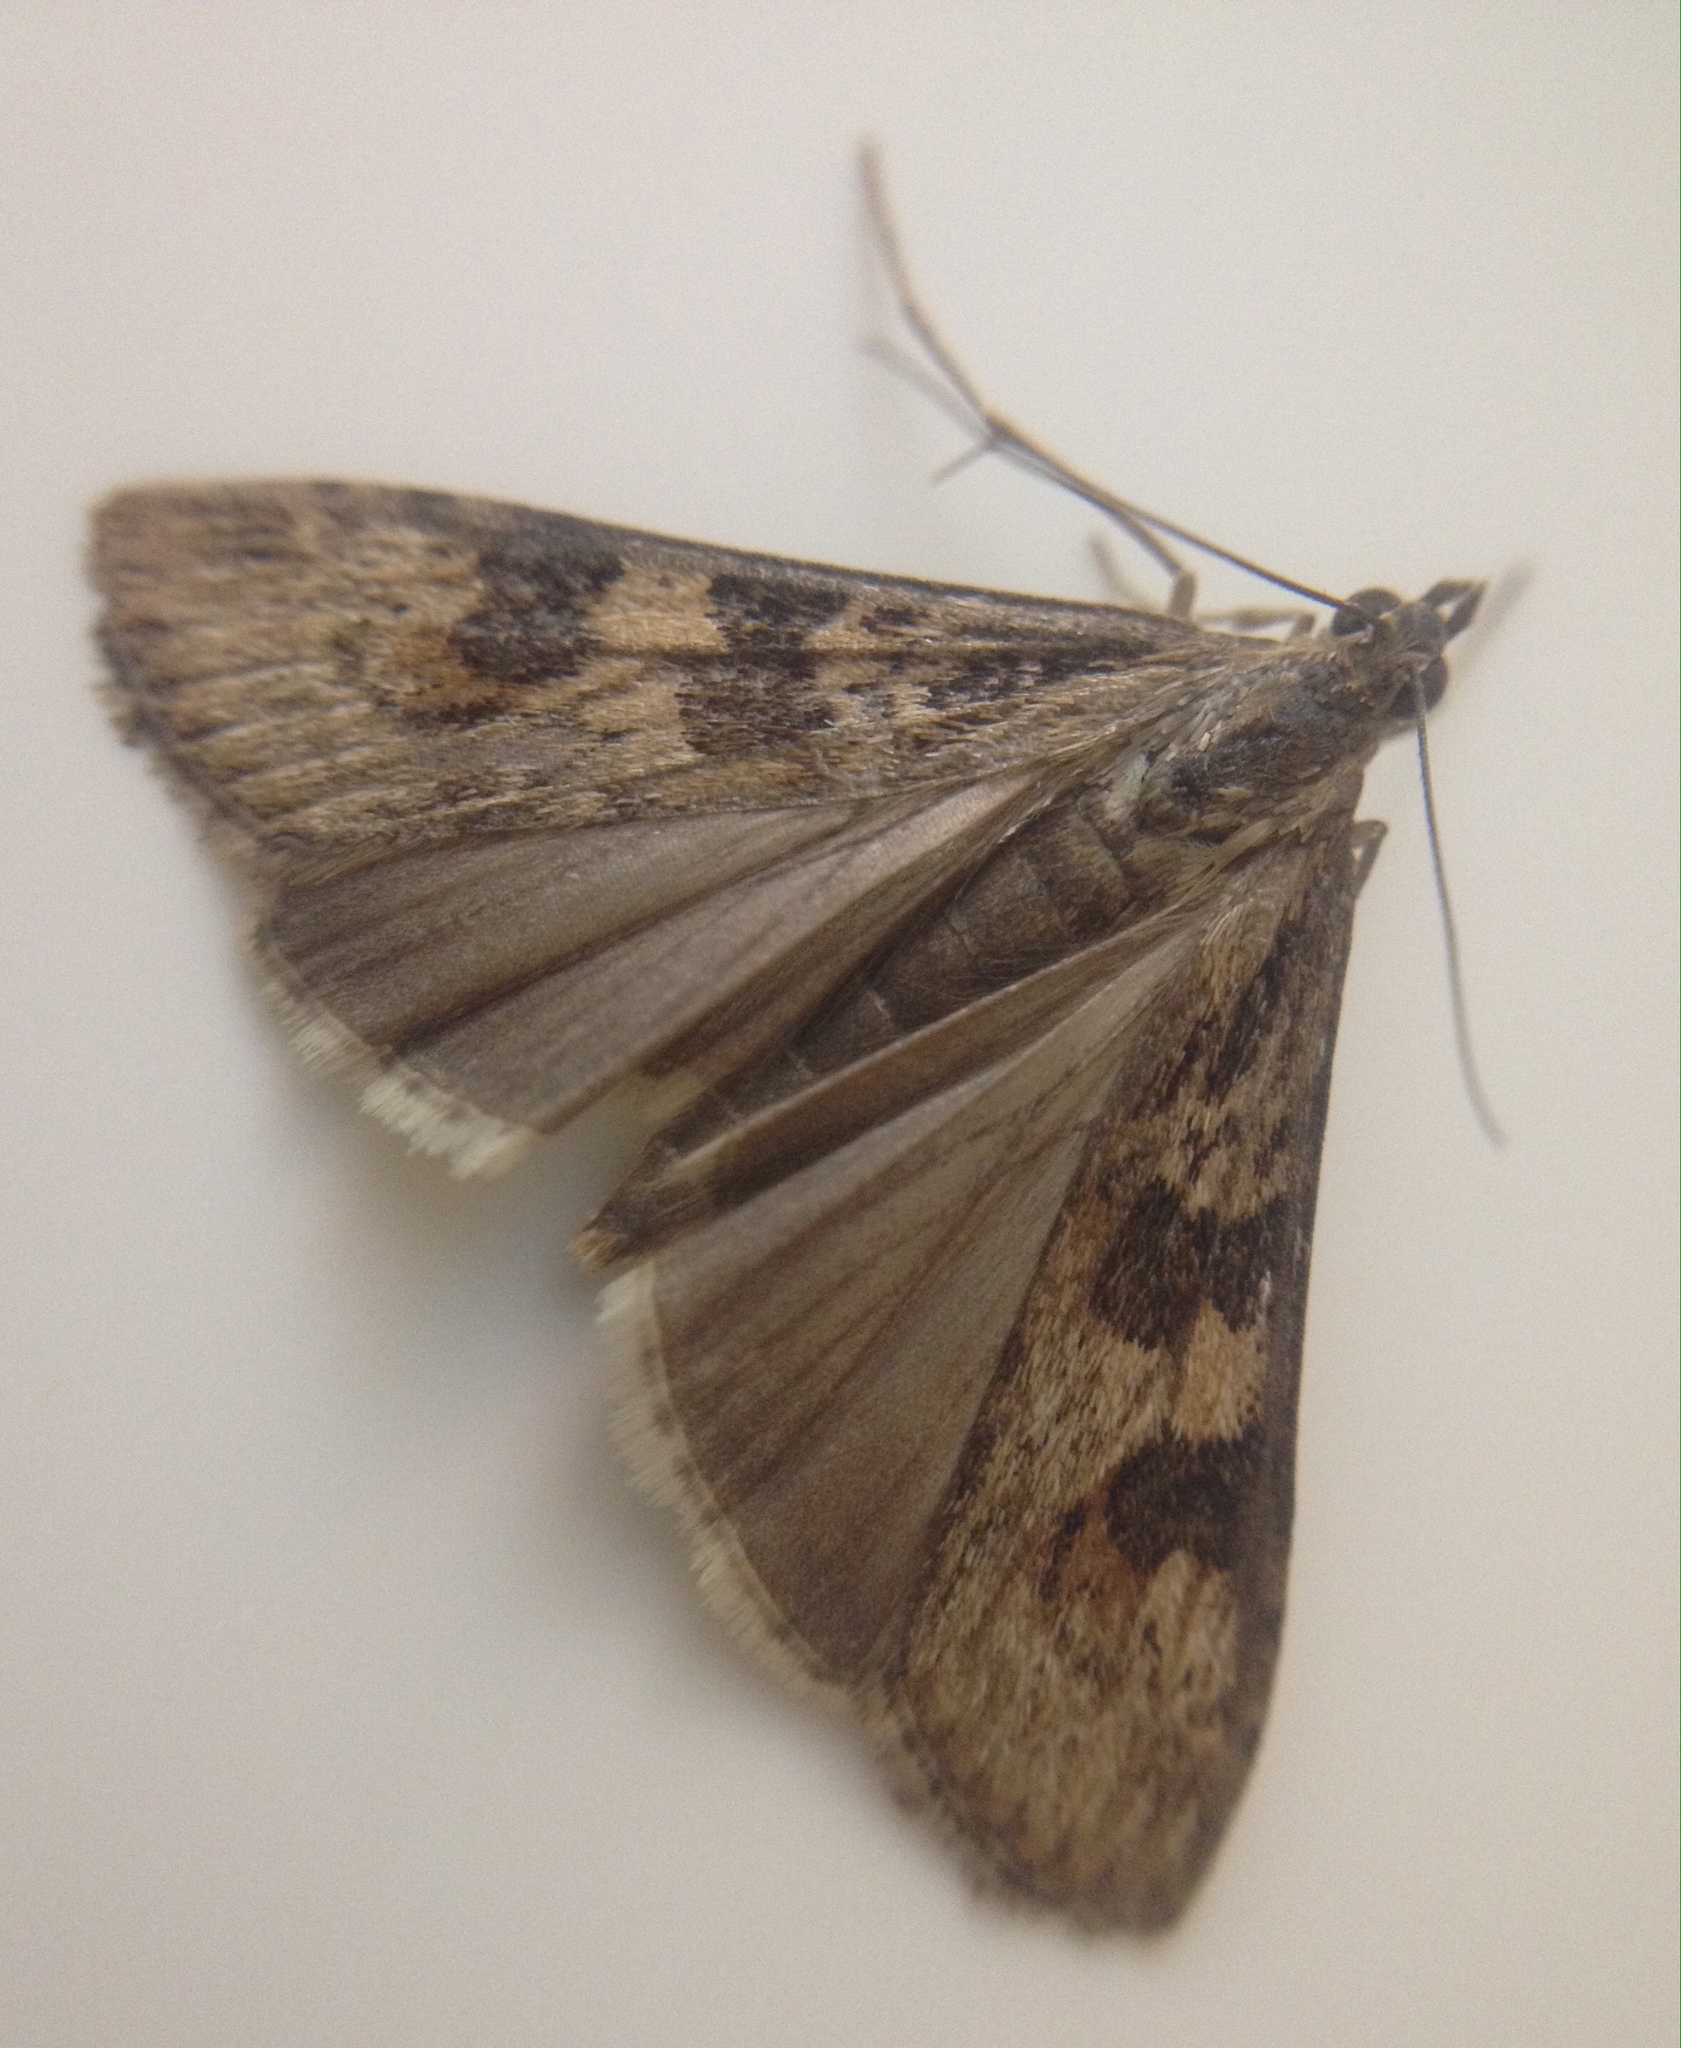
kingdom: Animalia
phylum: Arthropoda
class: Insecta
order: Lepidoptera
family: Crambidae
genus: Nomophila
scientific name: Nomophila noctuella
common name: Rush veneer
